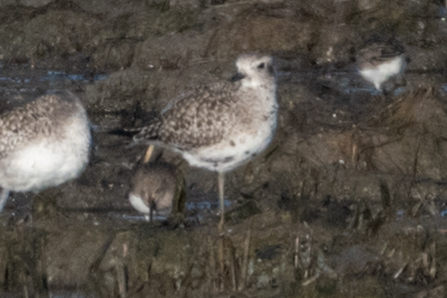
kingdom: Animalia
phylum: Chordata
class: Aves
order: Charadriiformes
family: Charadriidae
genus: Pluvialis
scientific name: Pluvialis squatarola
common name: Grey plover
